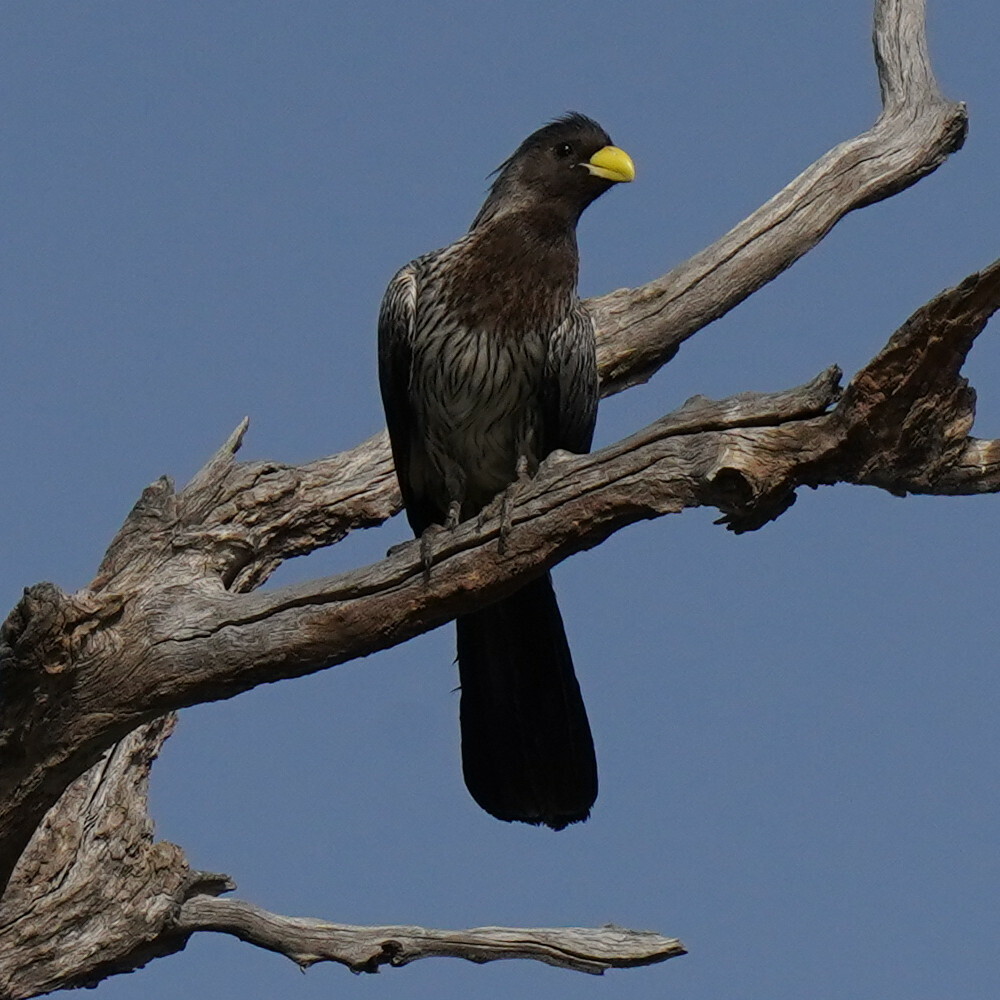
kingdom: Animalia
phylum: Chordata
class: Aves
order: Musophagiformes
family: Musophagidae
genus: Crinifer
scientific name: Crinifer piscator
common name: Western plantain-eater
